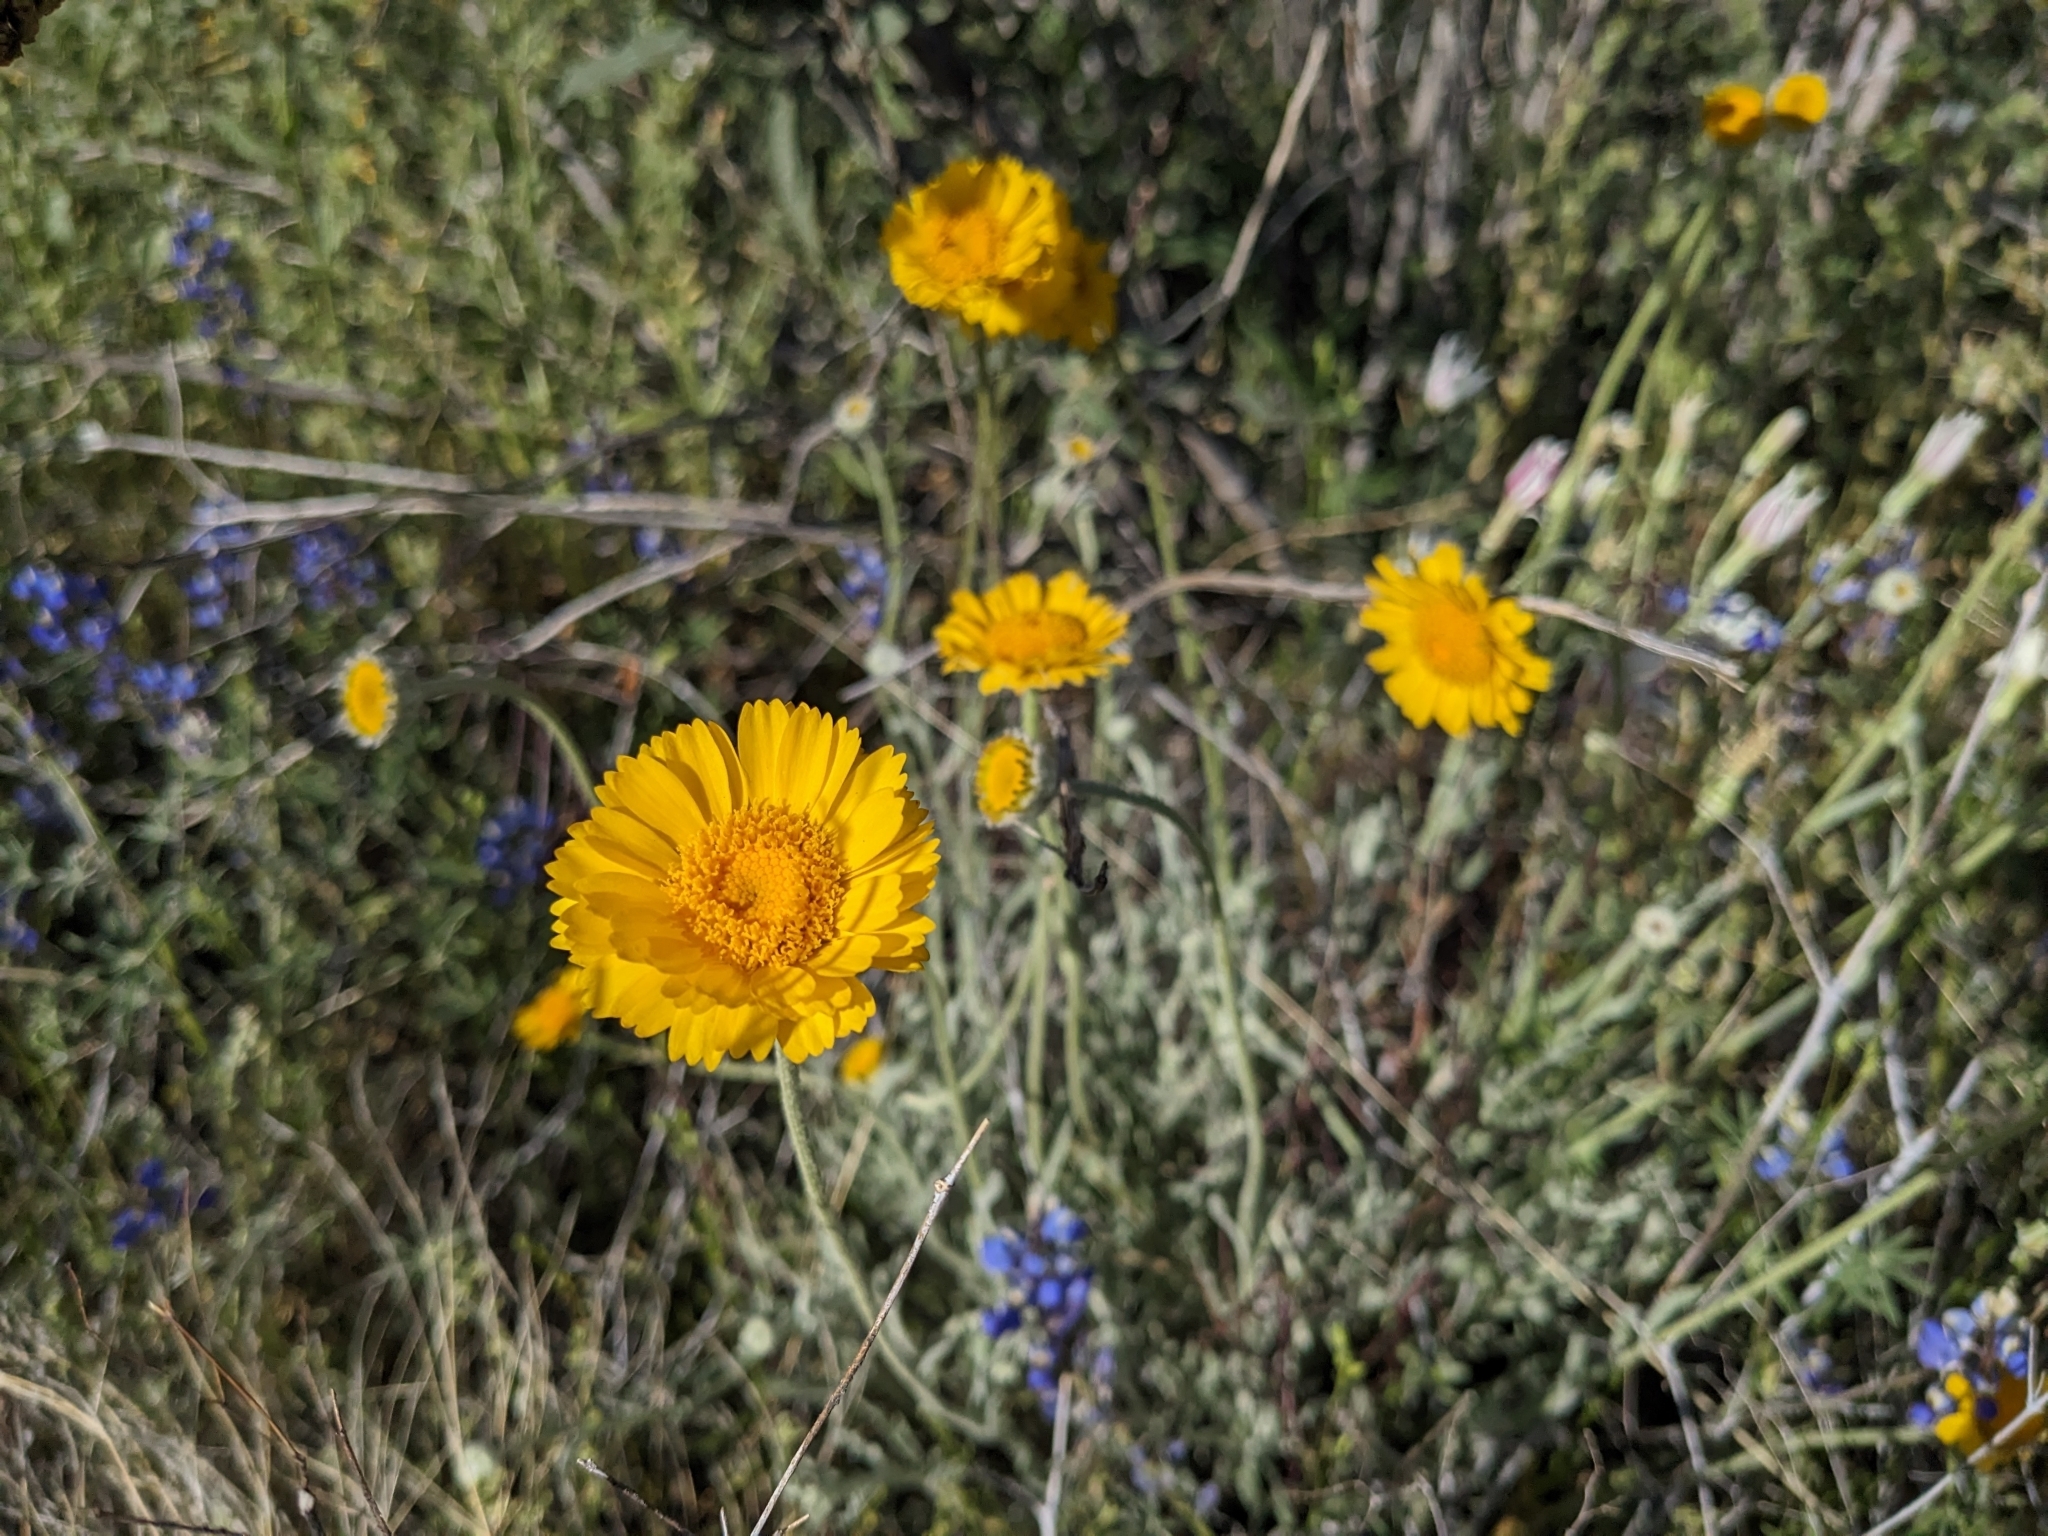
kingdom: Plantae
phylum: Tracheophyta
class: Magnoliopsida
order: Asterales
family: Asteraceae
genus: Baileya
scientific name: Baileya multiradiata
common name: Desert-marigold
